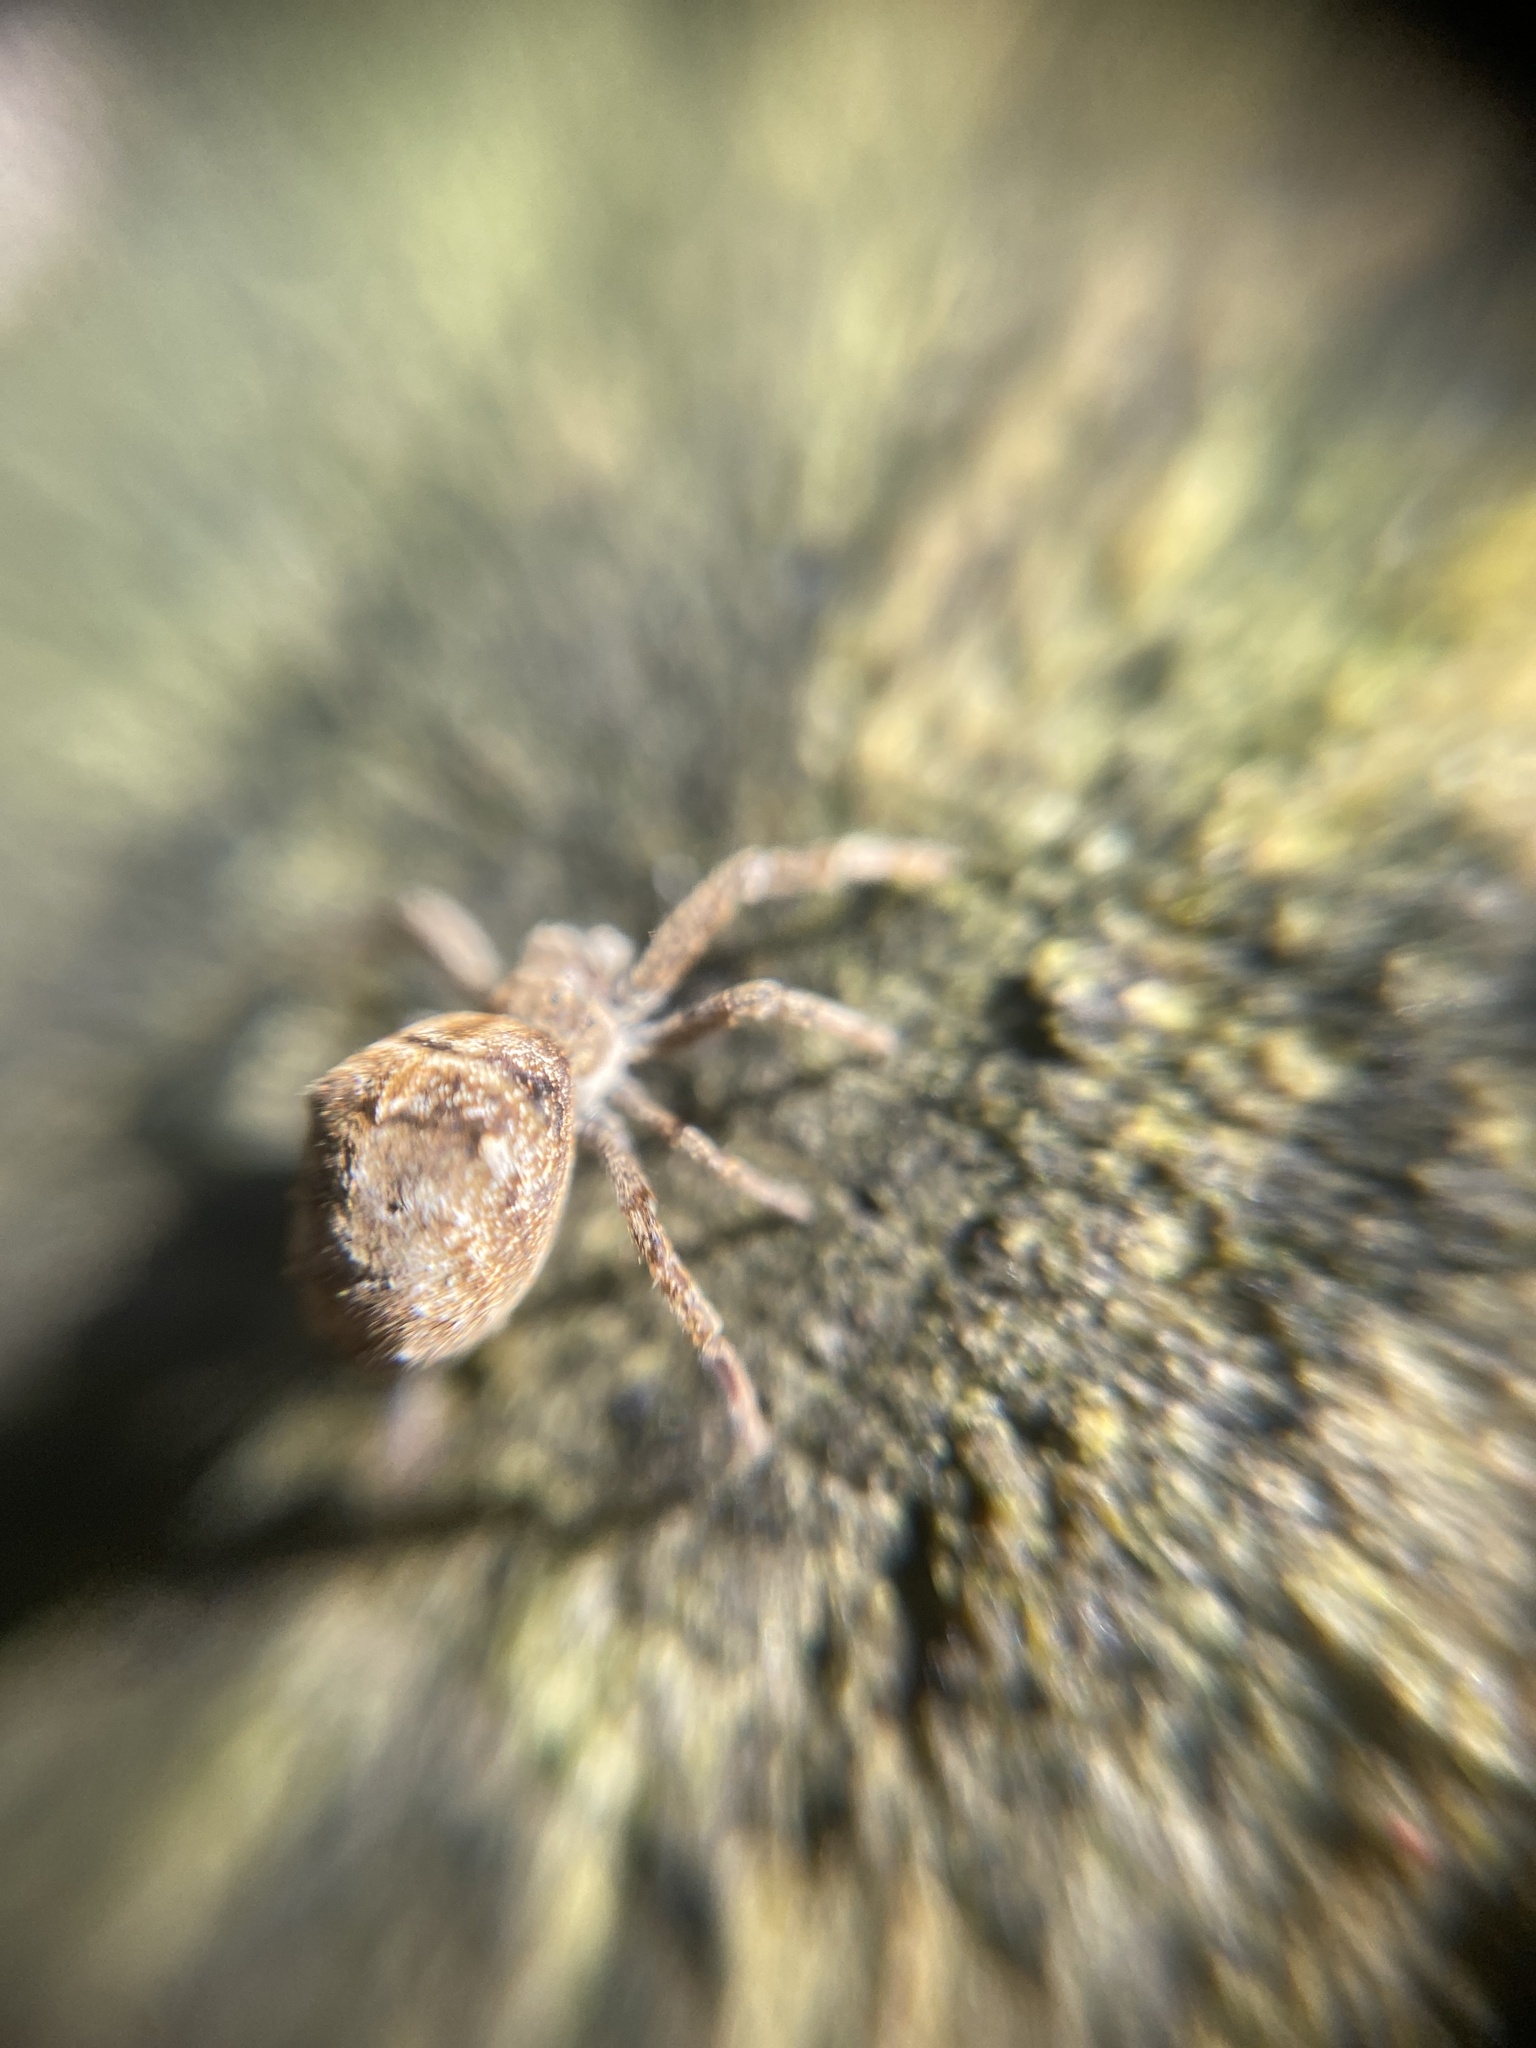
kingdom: Animalia
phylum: Arthropoda
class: Arachnida
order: Araneae
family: Uloboridae
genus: Hyptiotes
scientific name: Hyptiotes paradoxus
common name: Triangle spider
